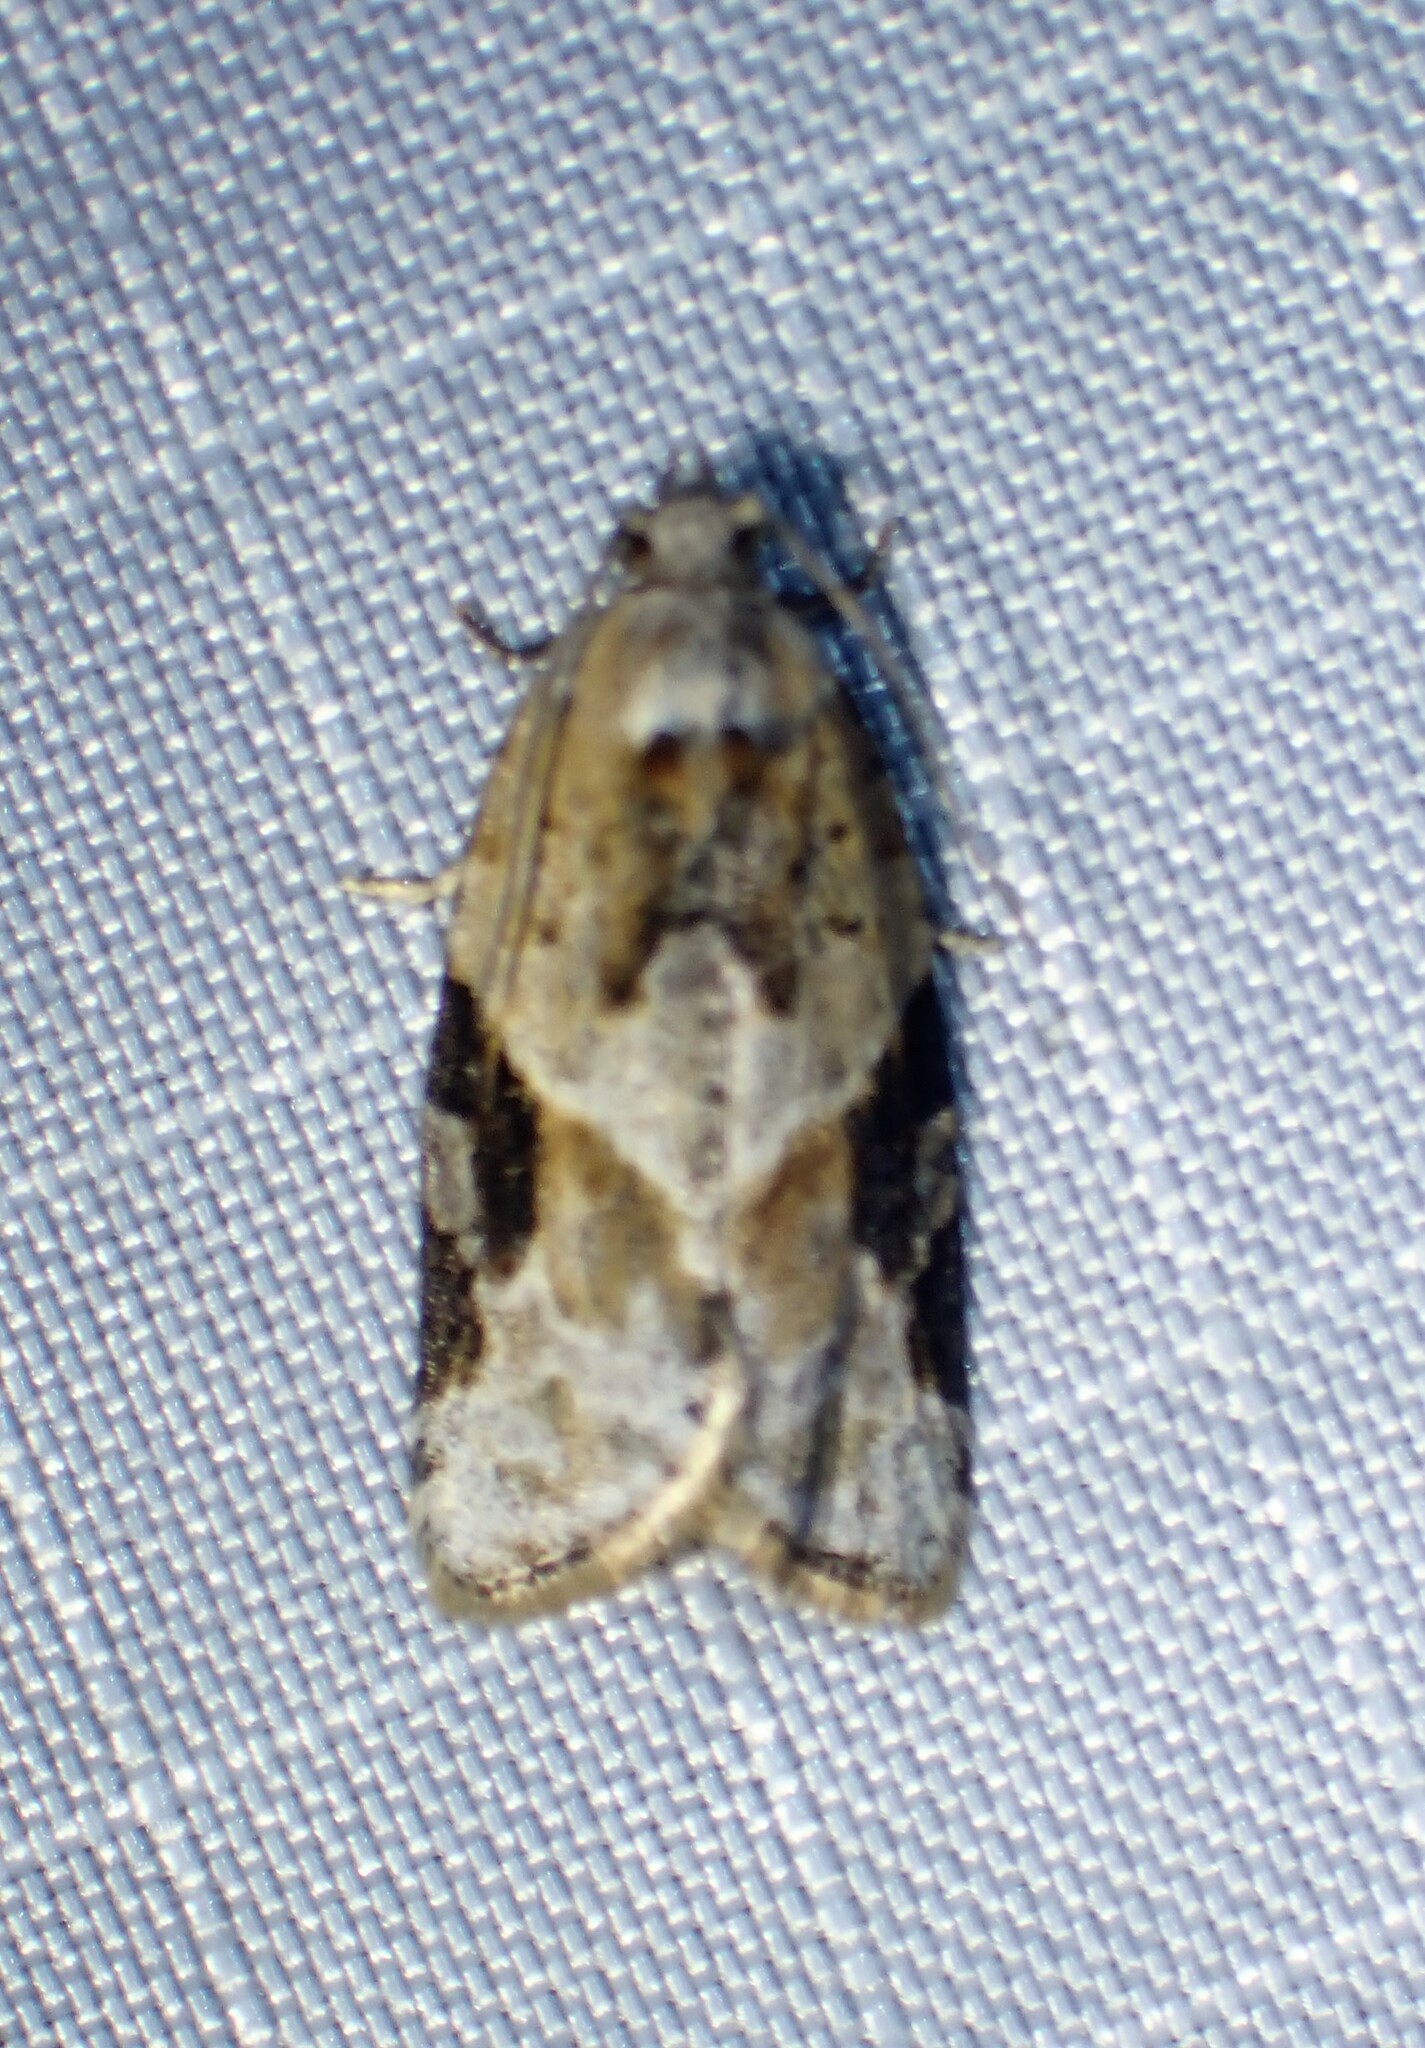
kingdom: Animalia
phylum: Arthropoda
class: Insecta
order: Lepidoptera
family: Tortricidae
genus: Argyrotaenia
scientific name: Argyrotaenia mariana
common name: Gray-banded leafroller moth
